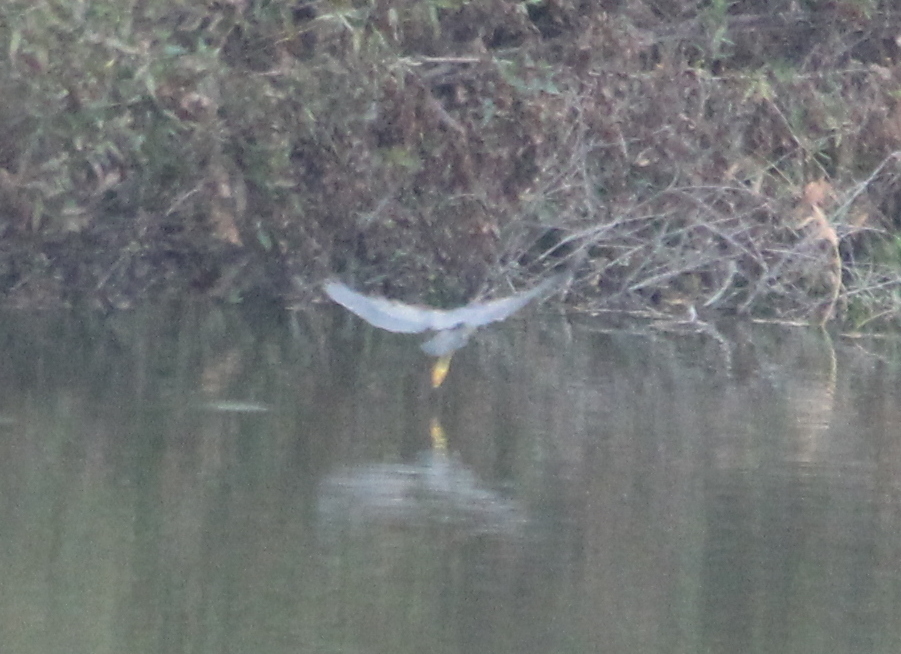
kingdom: Animalia
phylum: Chordata
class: Aves
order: Pelecaniformes
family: Ardeidae
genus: Butorides
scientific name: Butorides virescens
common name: Green heron
